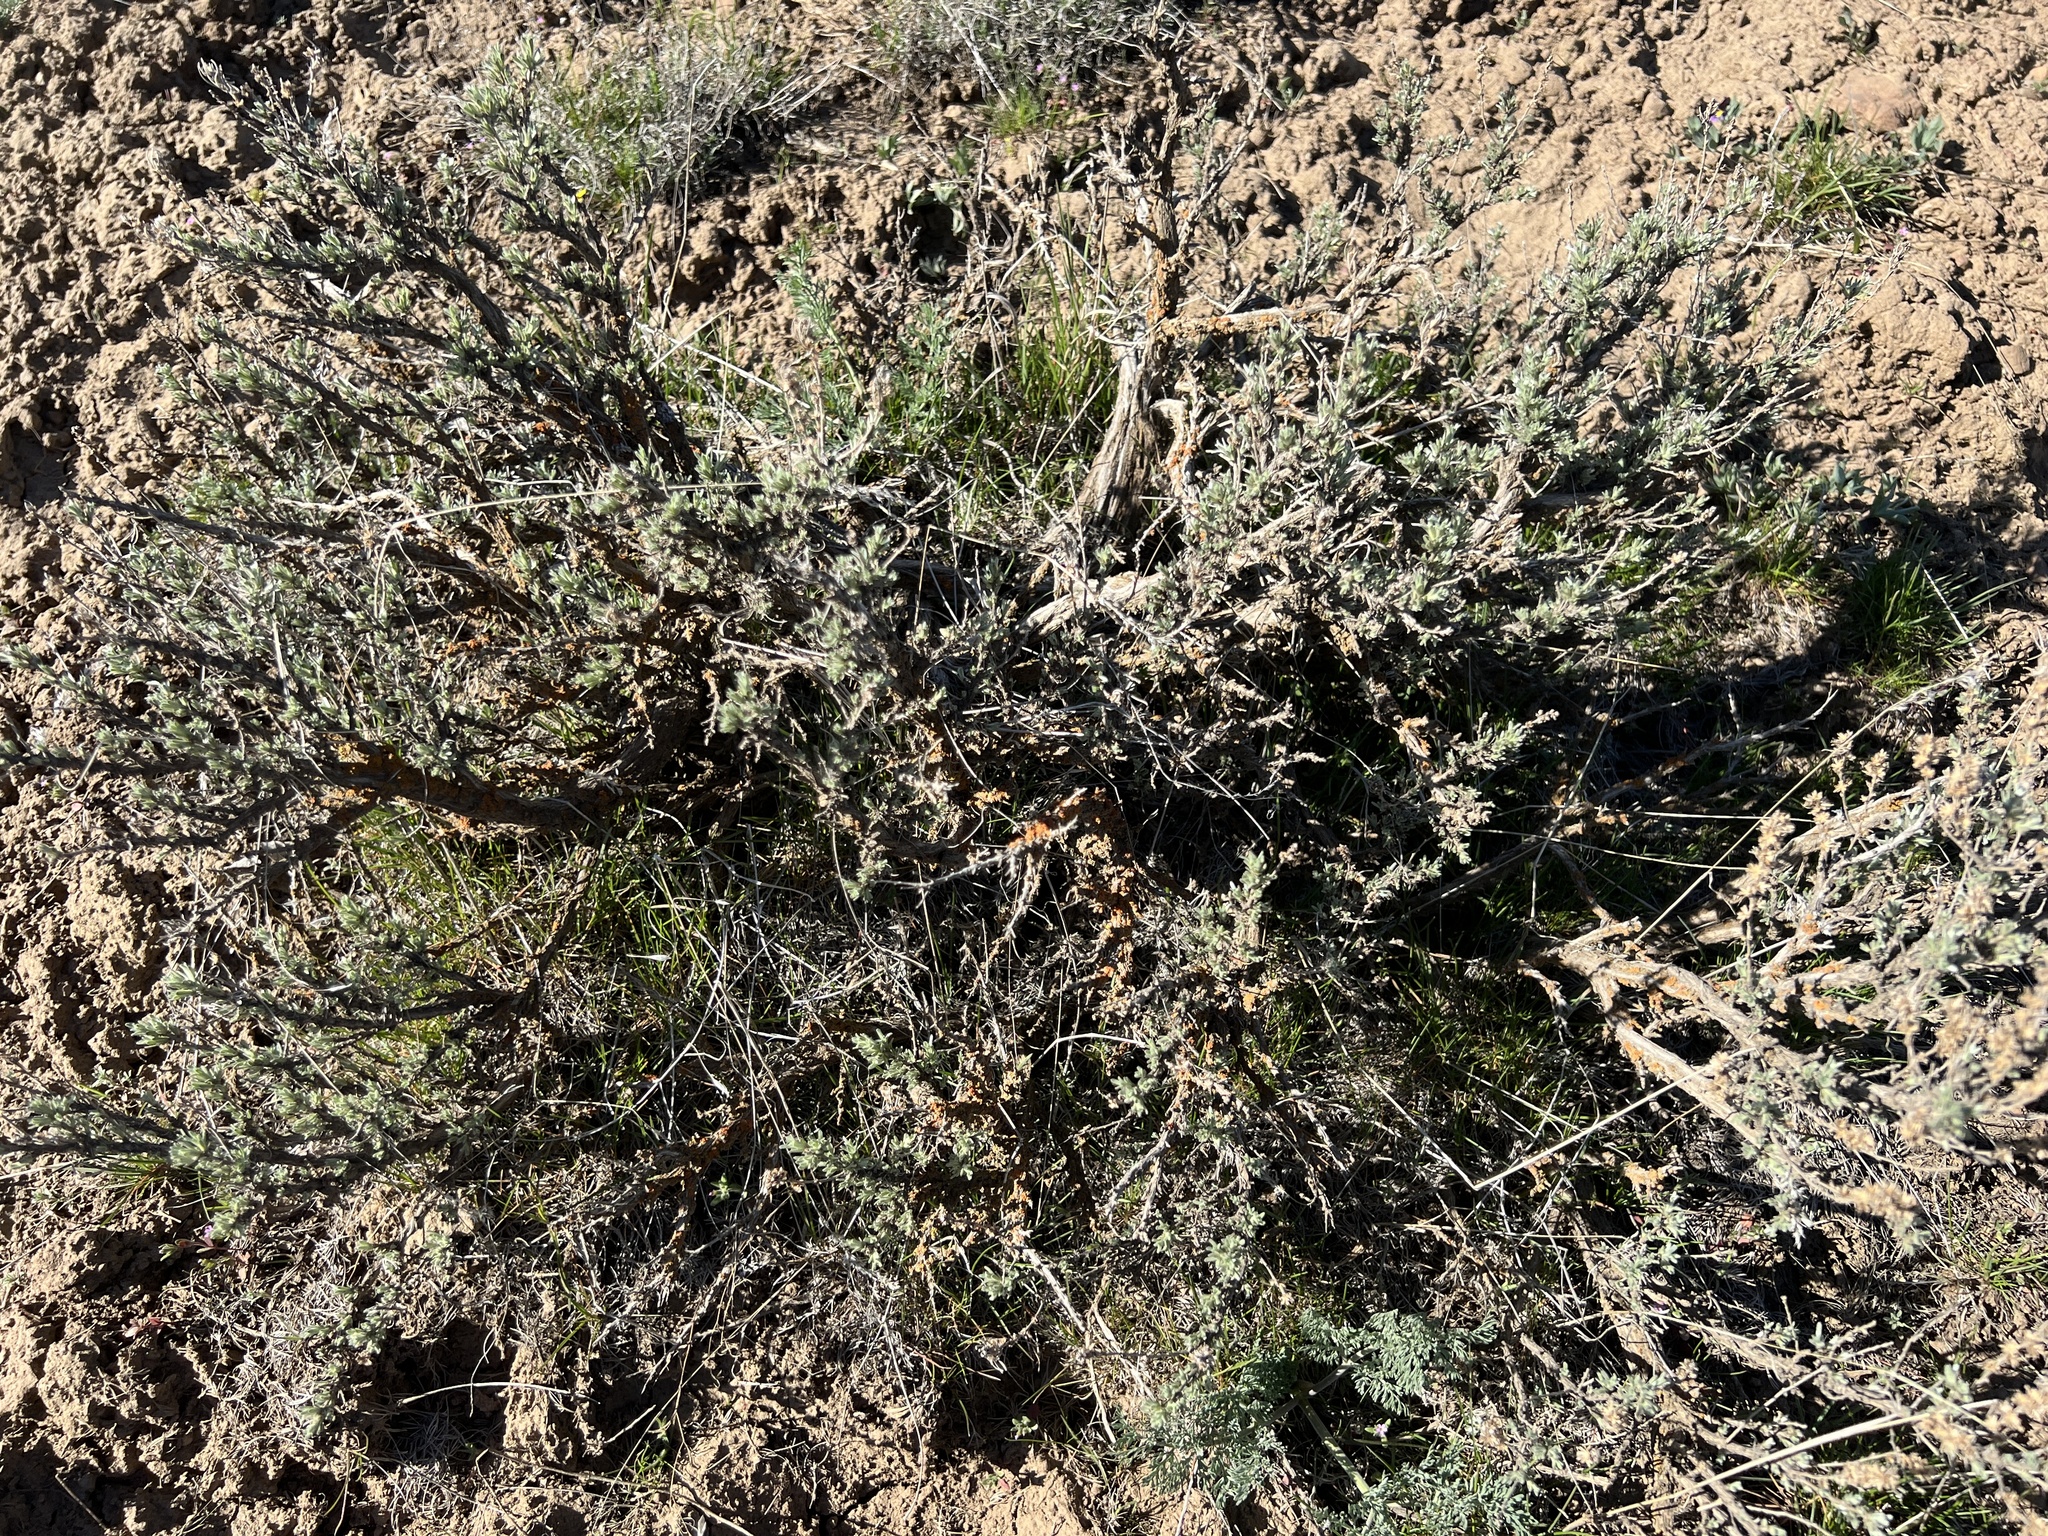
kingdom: Plantae
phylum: Tracheophyta
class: Magnoliopsida
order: Asterales
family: Asteraceae
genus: Artemisia
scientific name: Artemisia rigida
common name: Scabland sagebrush
